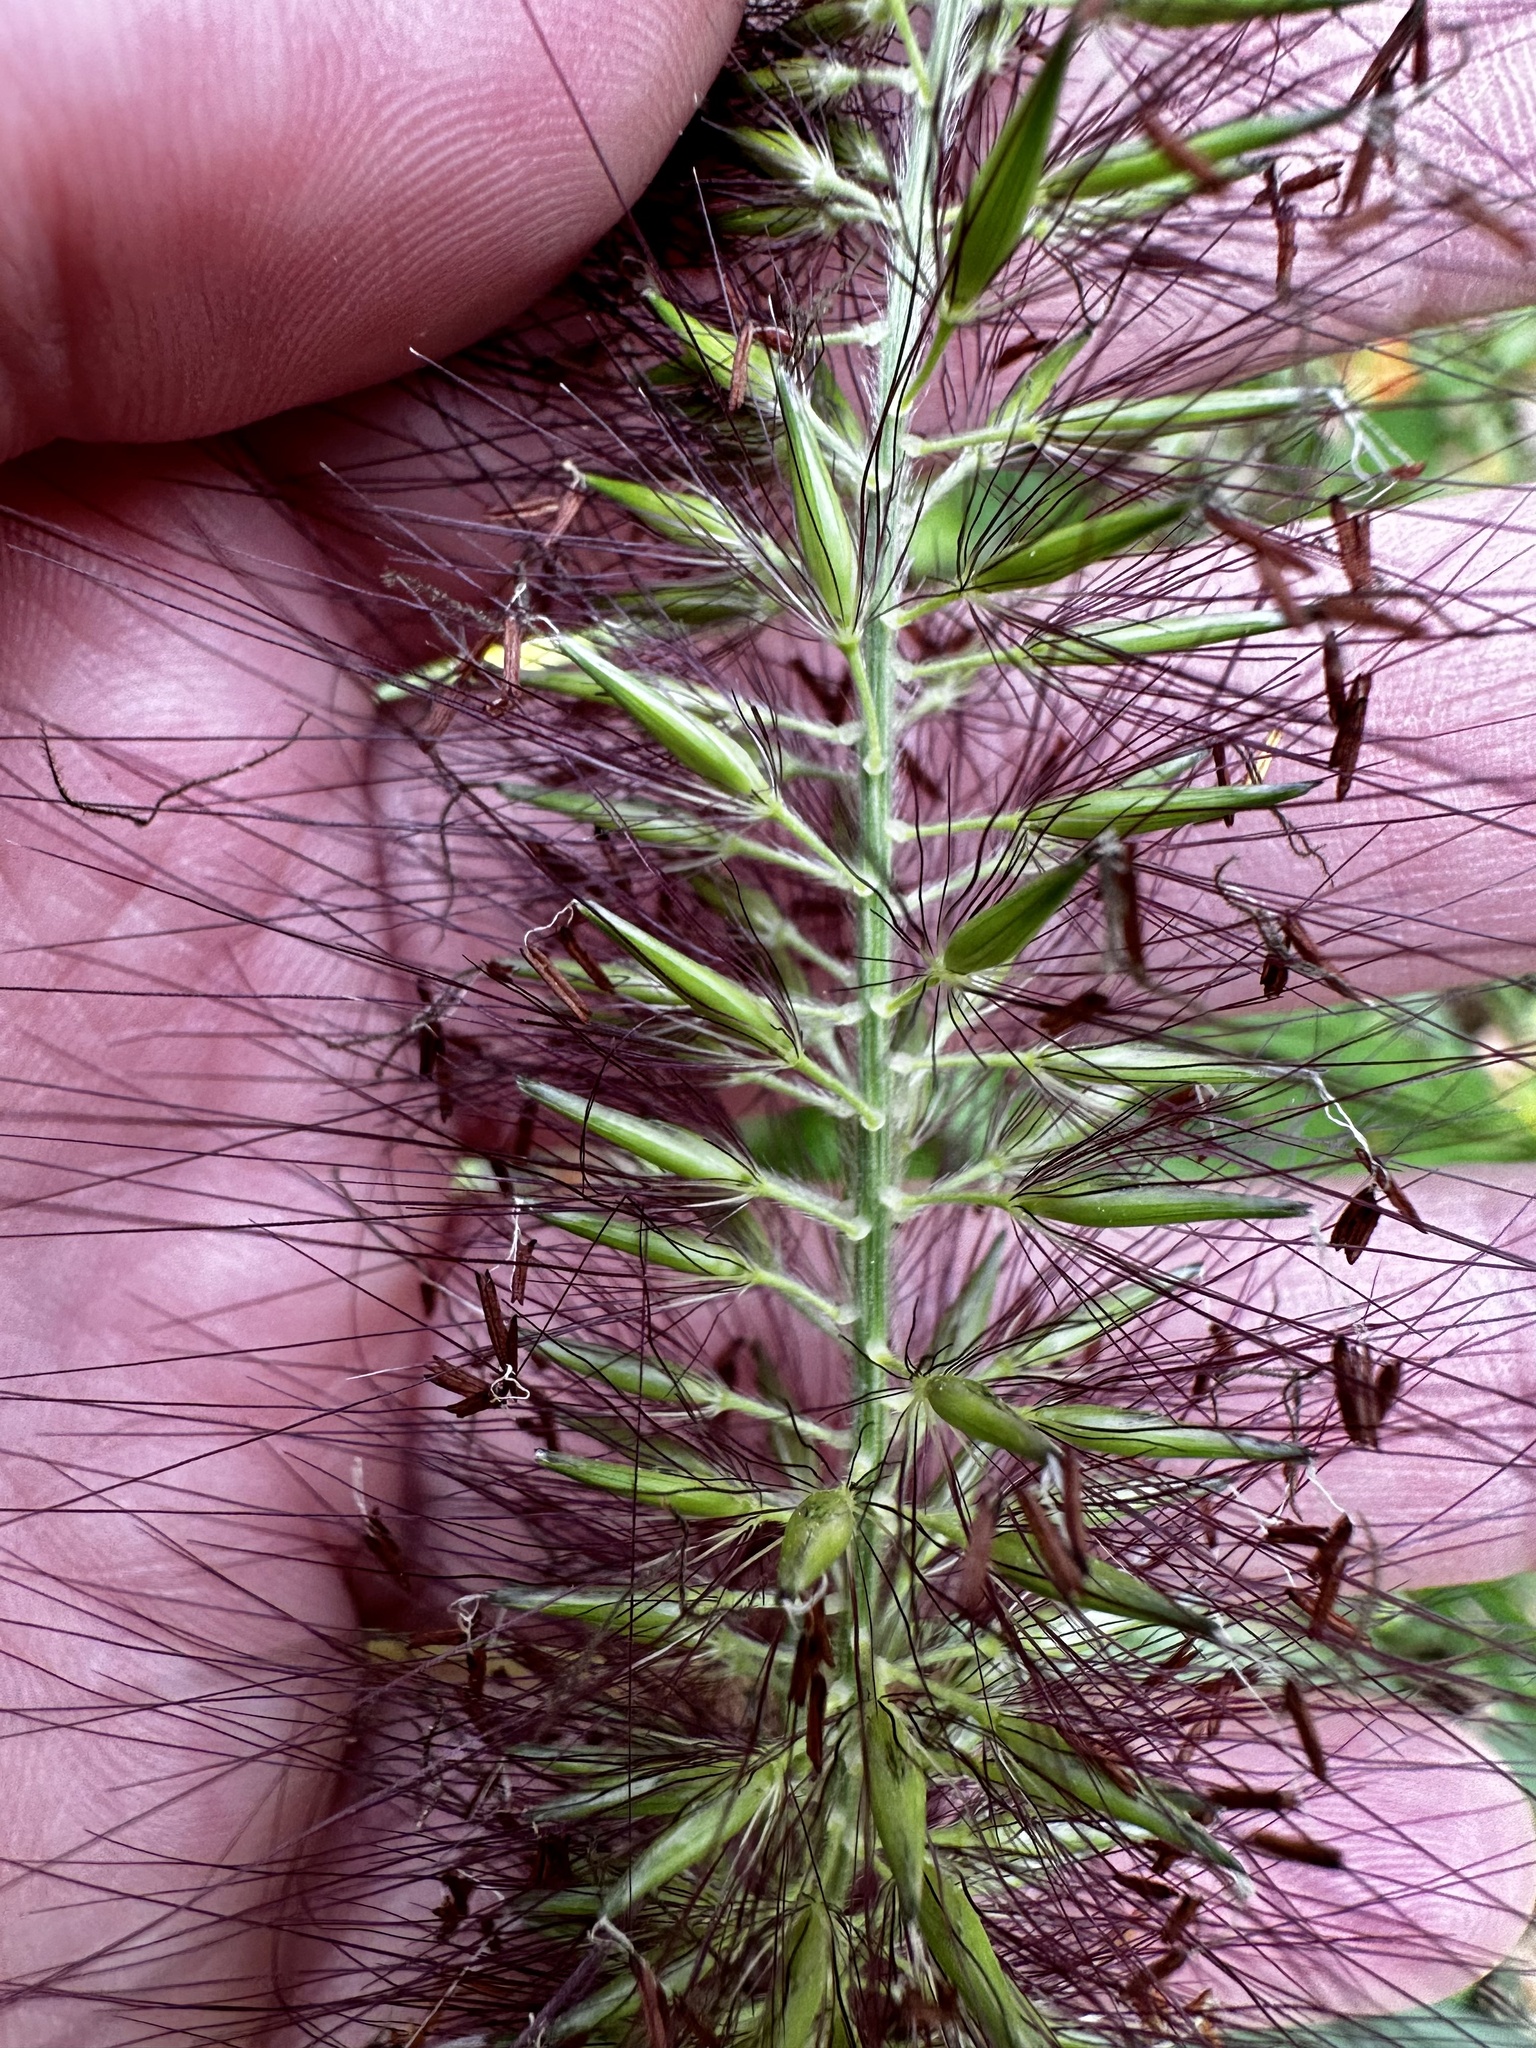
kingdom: Plantae
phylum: Tracheophyta
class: Liliopsida
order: Poales
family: Poaceae
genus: Cenchrus
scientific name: Cenchrus alopecuroides
